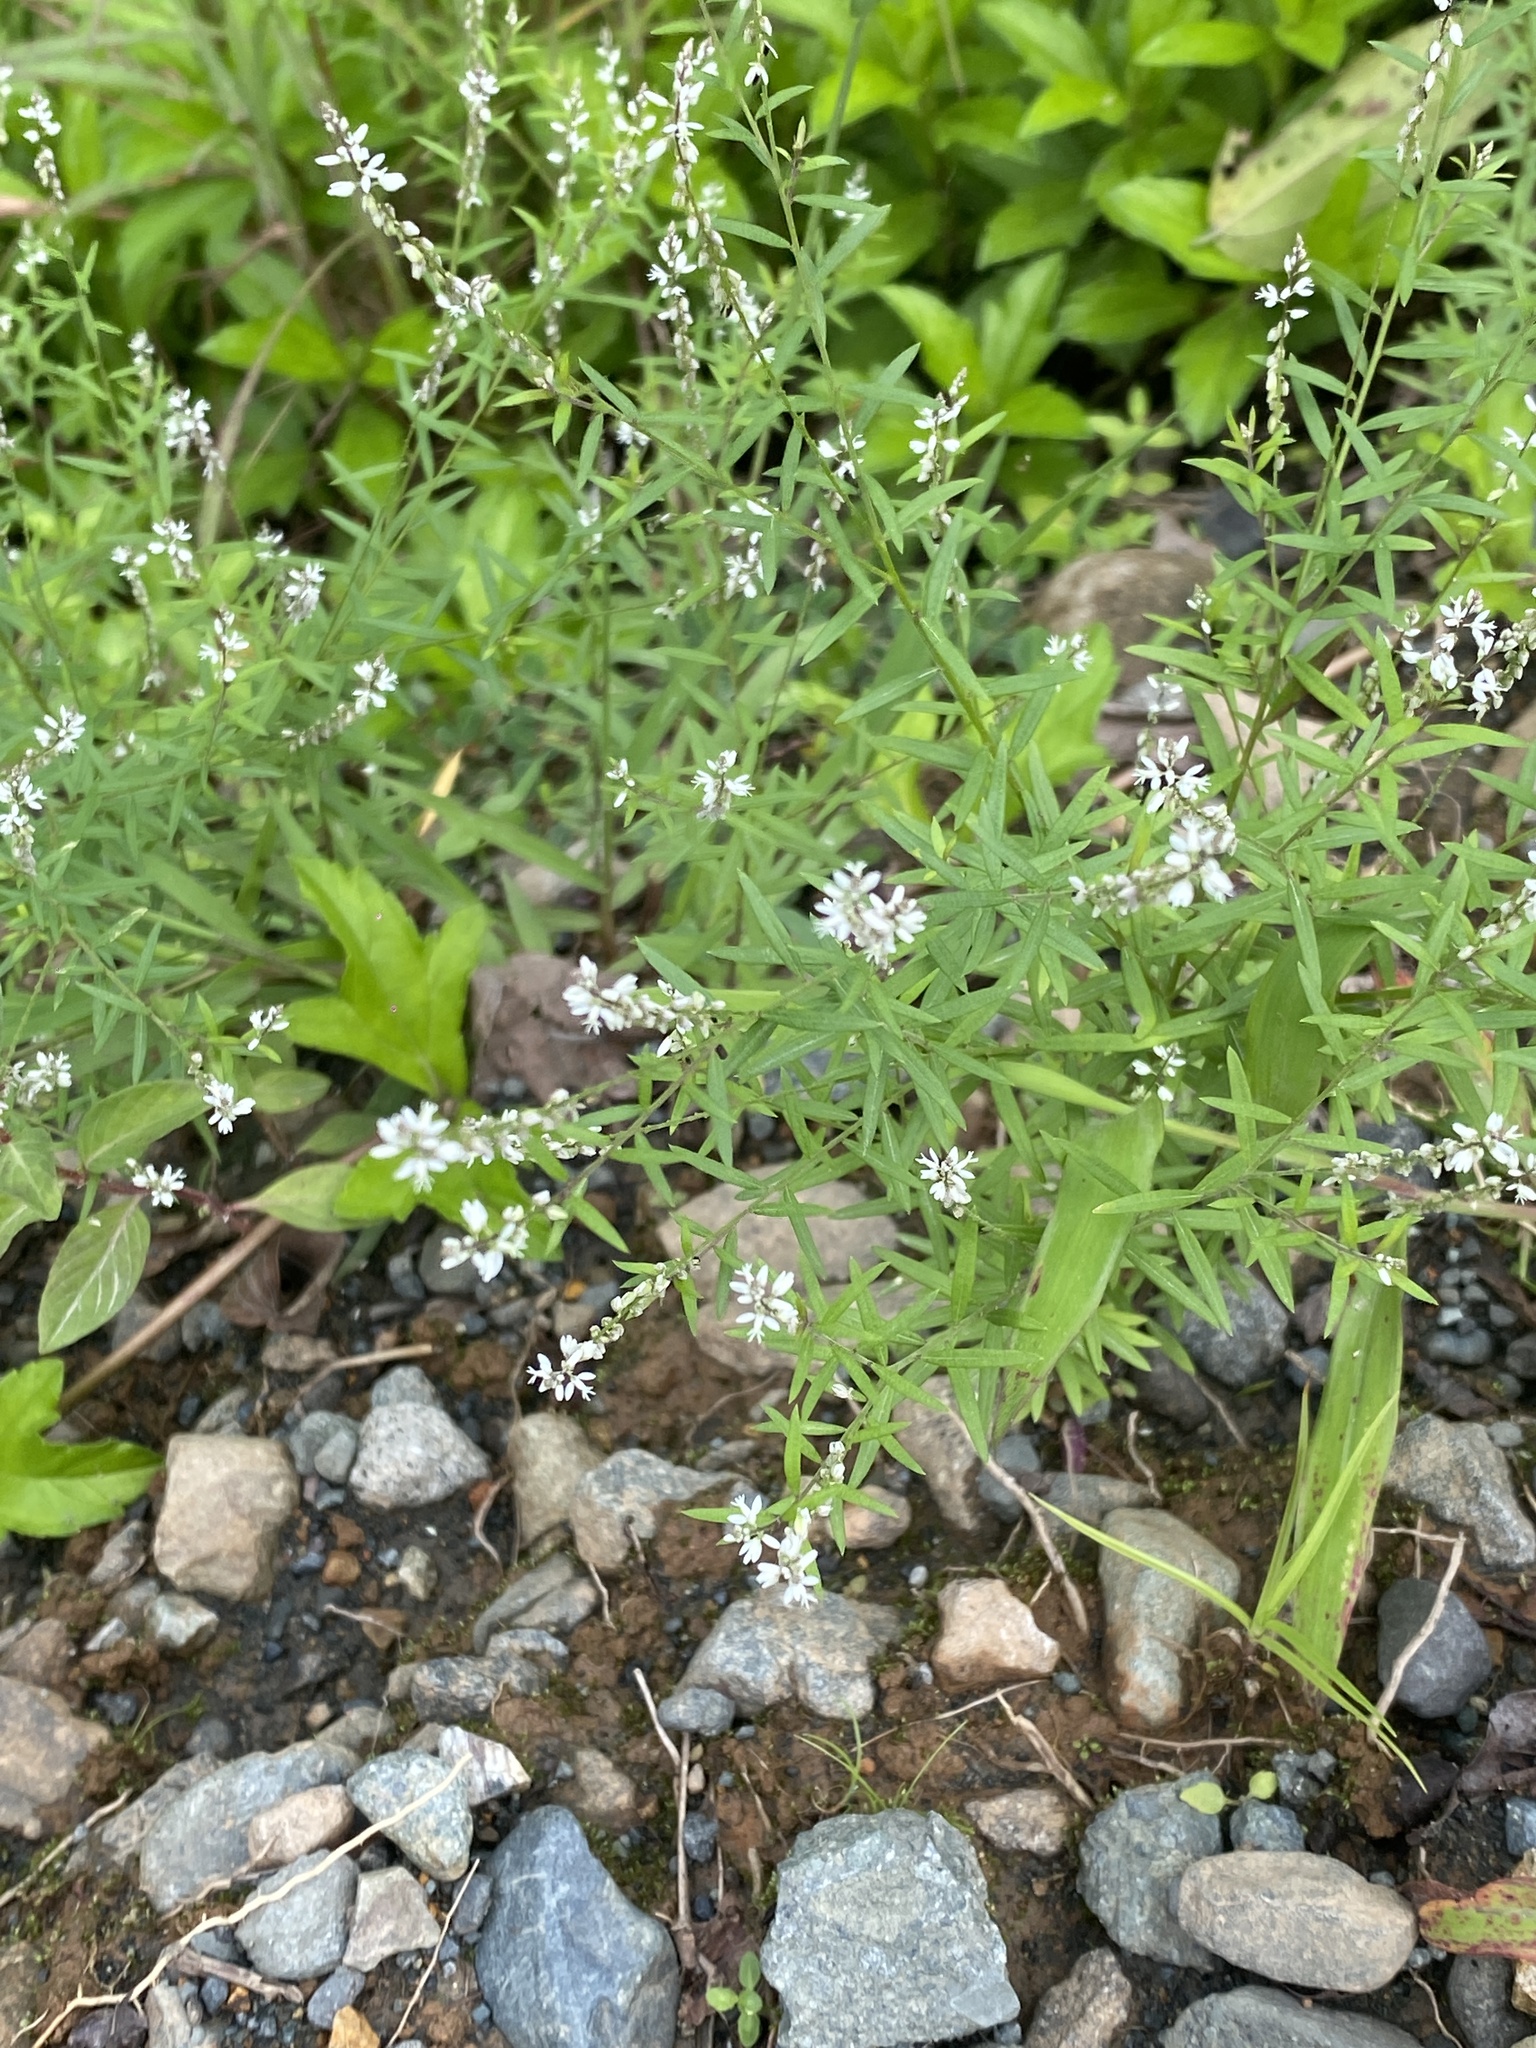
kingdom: Plantae
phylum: Tracheophyta
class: Magnoliopsida
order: Fabales
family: Polygalaceae
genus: Polygala
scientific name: Polygala paniculata
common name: Orosne
